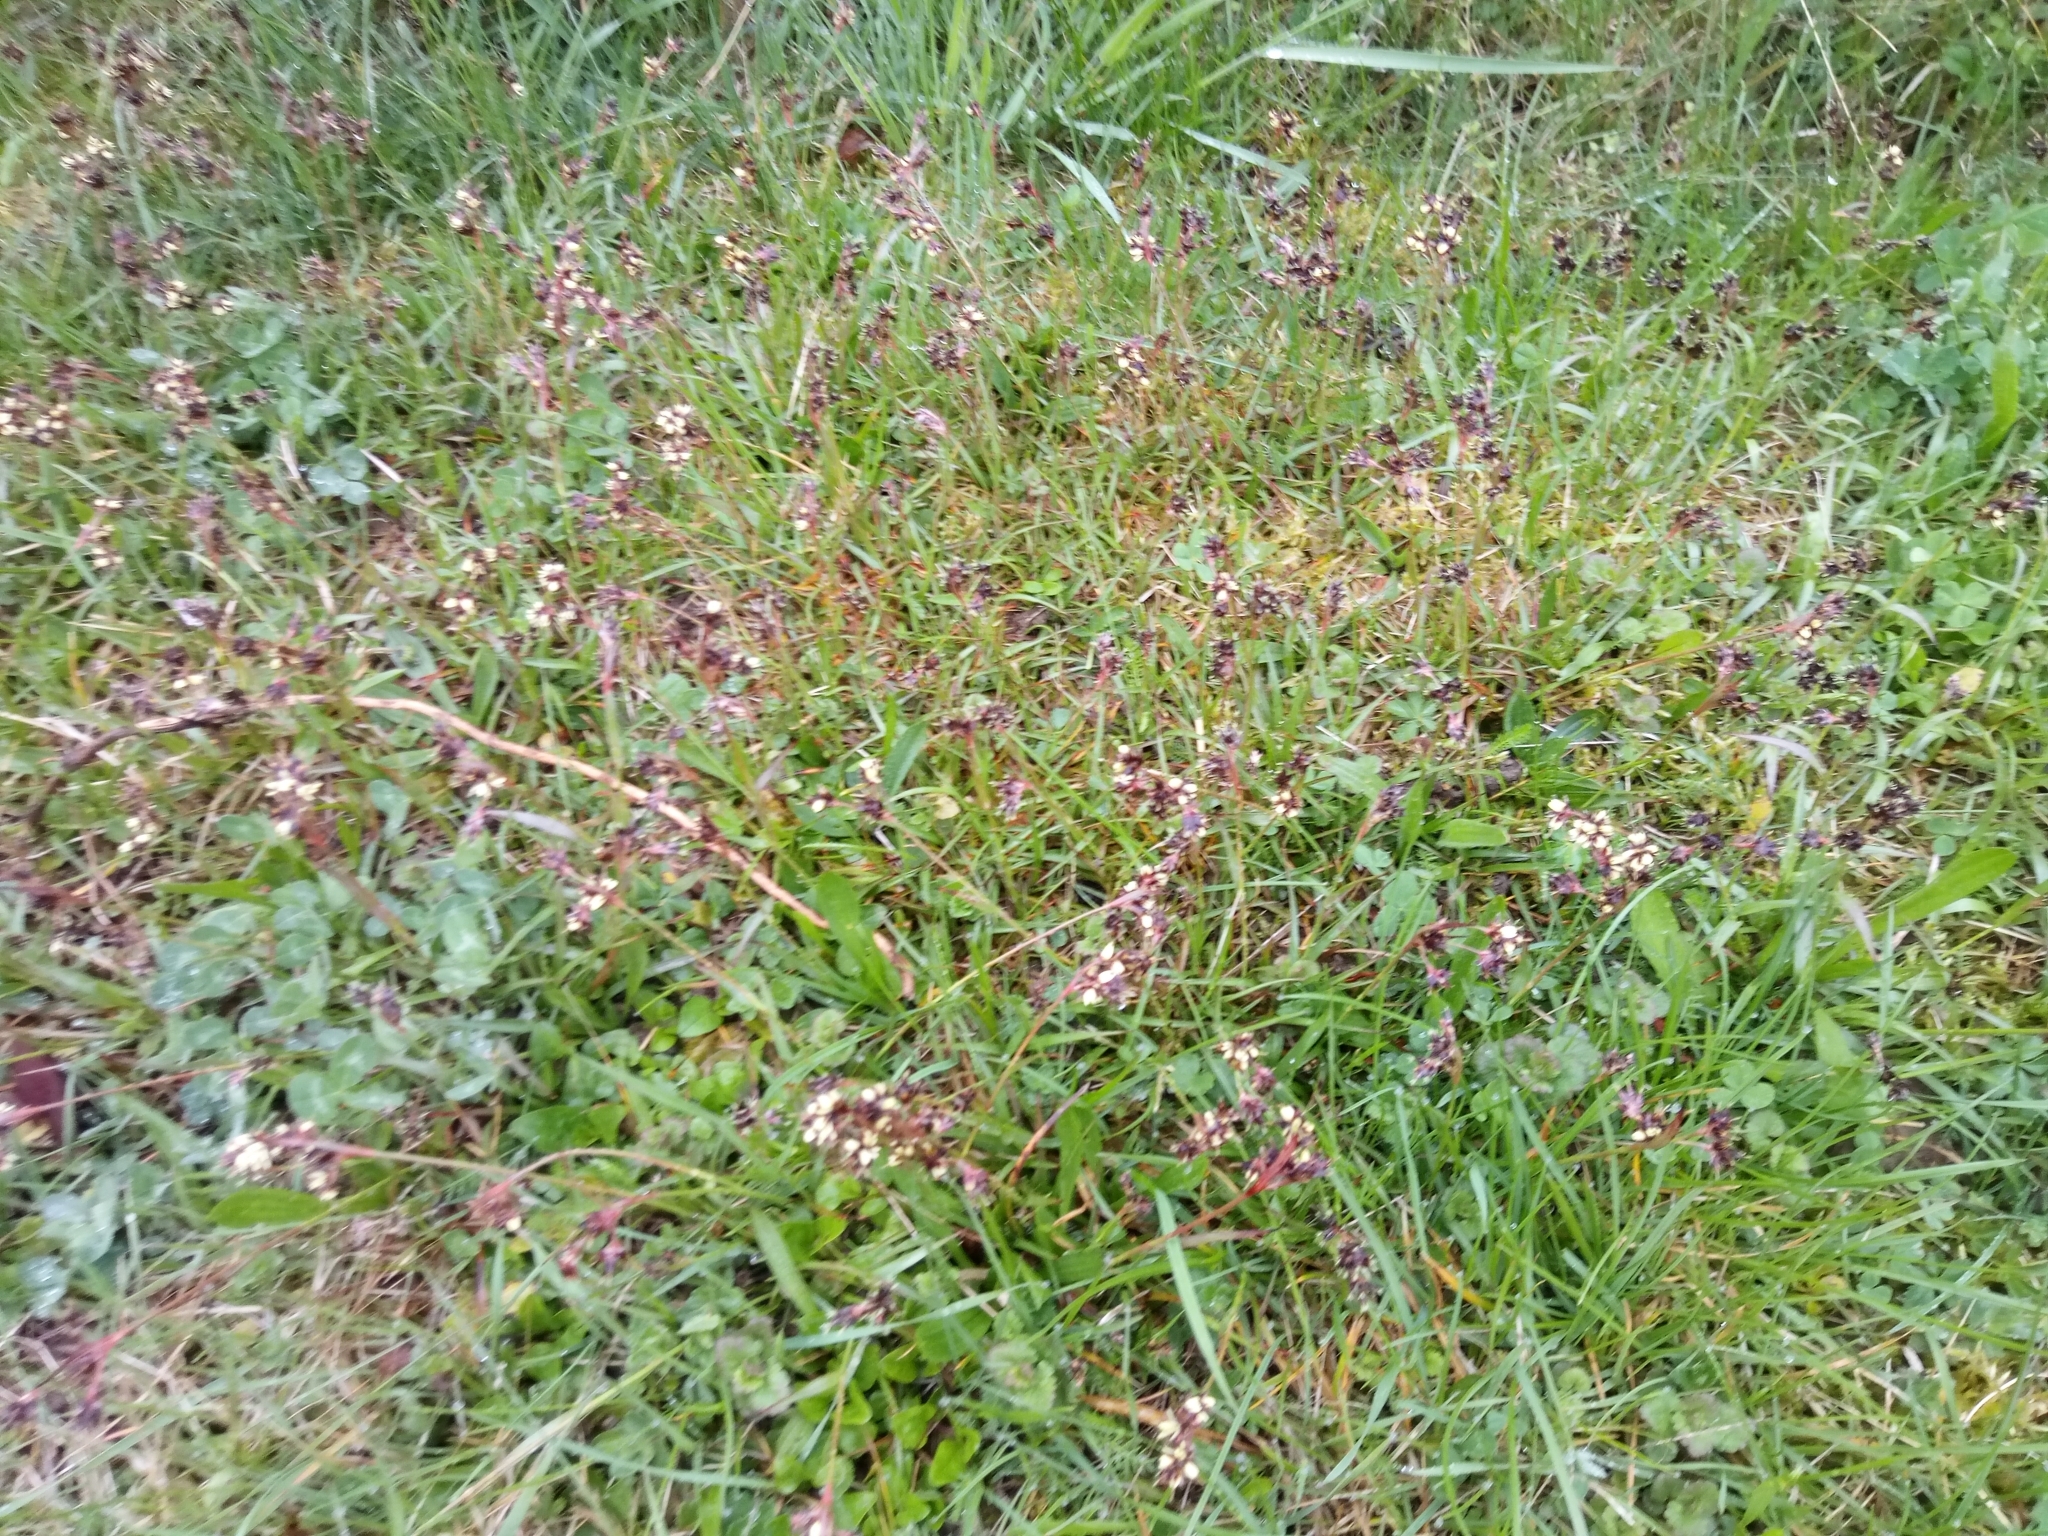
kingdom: Plantae
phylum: Tracheophyta
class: Liliopsida
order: Poales
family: Juncaceae
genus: Luzula
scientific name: Luzula campestris
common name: Field wood-rush
